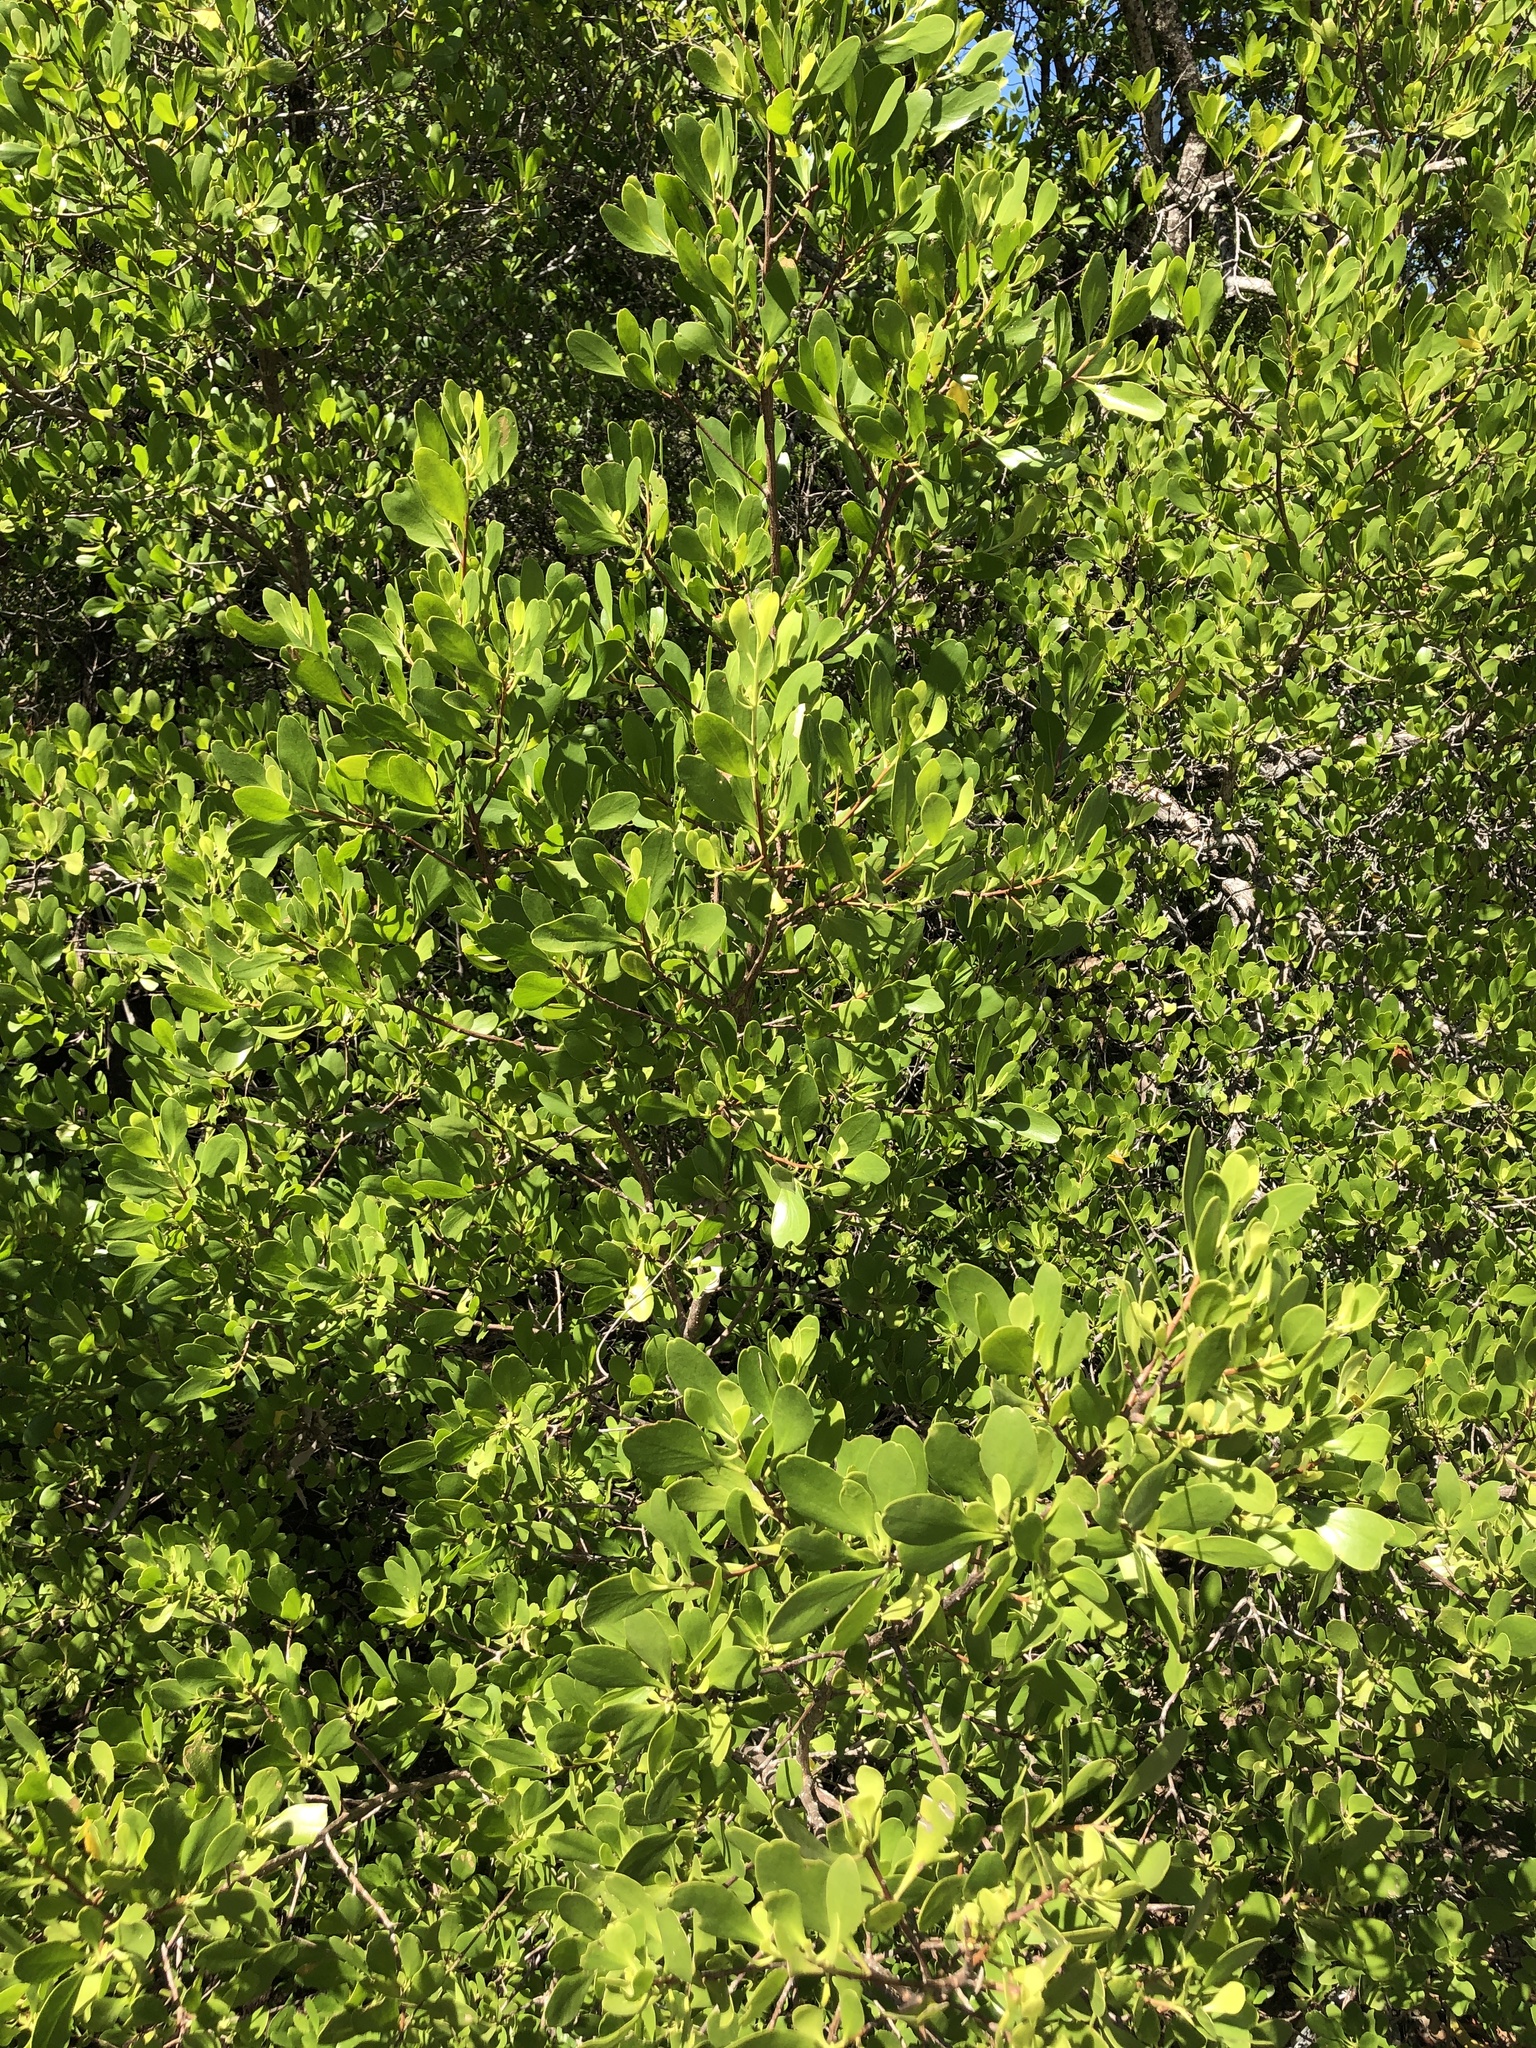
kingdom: Plantae
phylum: Tracheophyta
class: Magnoliopsida
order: Myrtales
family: Combretaceae
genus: Lumnitzera
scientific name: Lumnitzera racemosa
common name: White-flowered black mangrove
